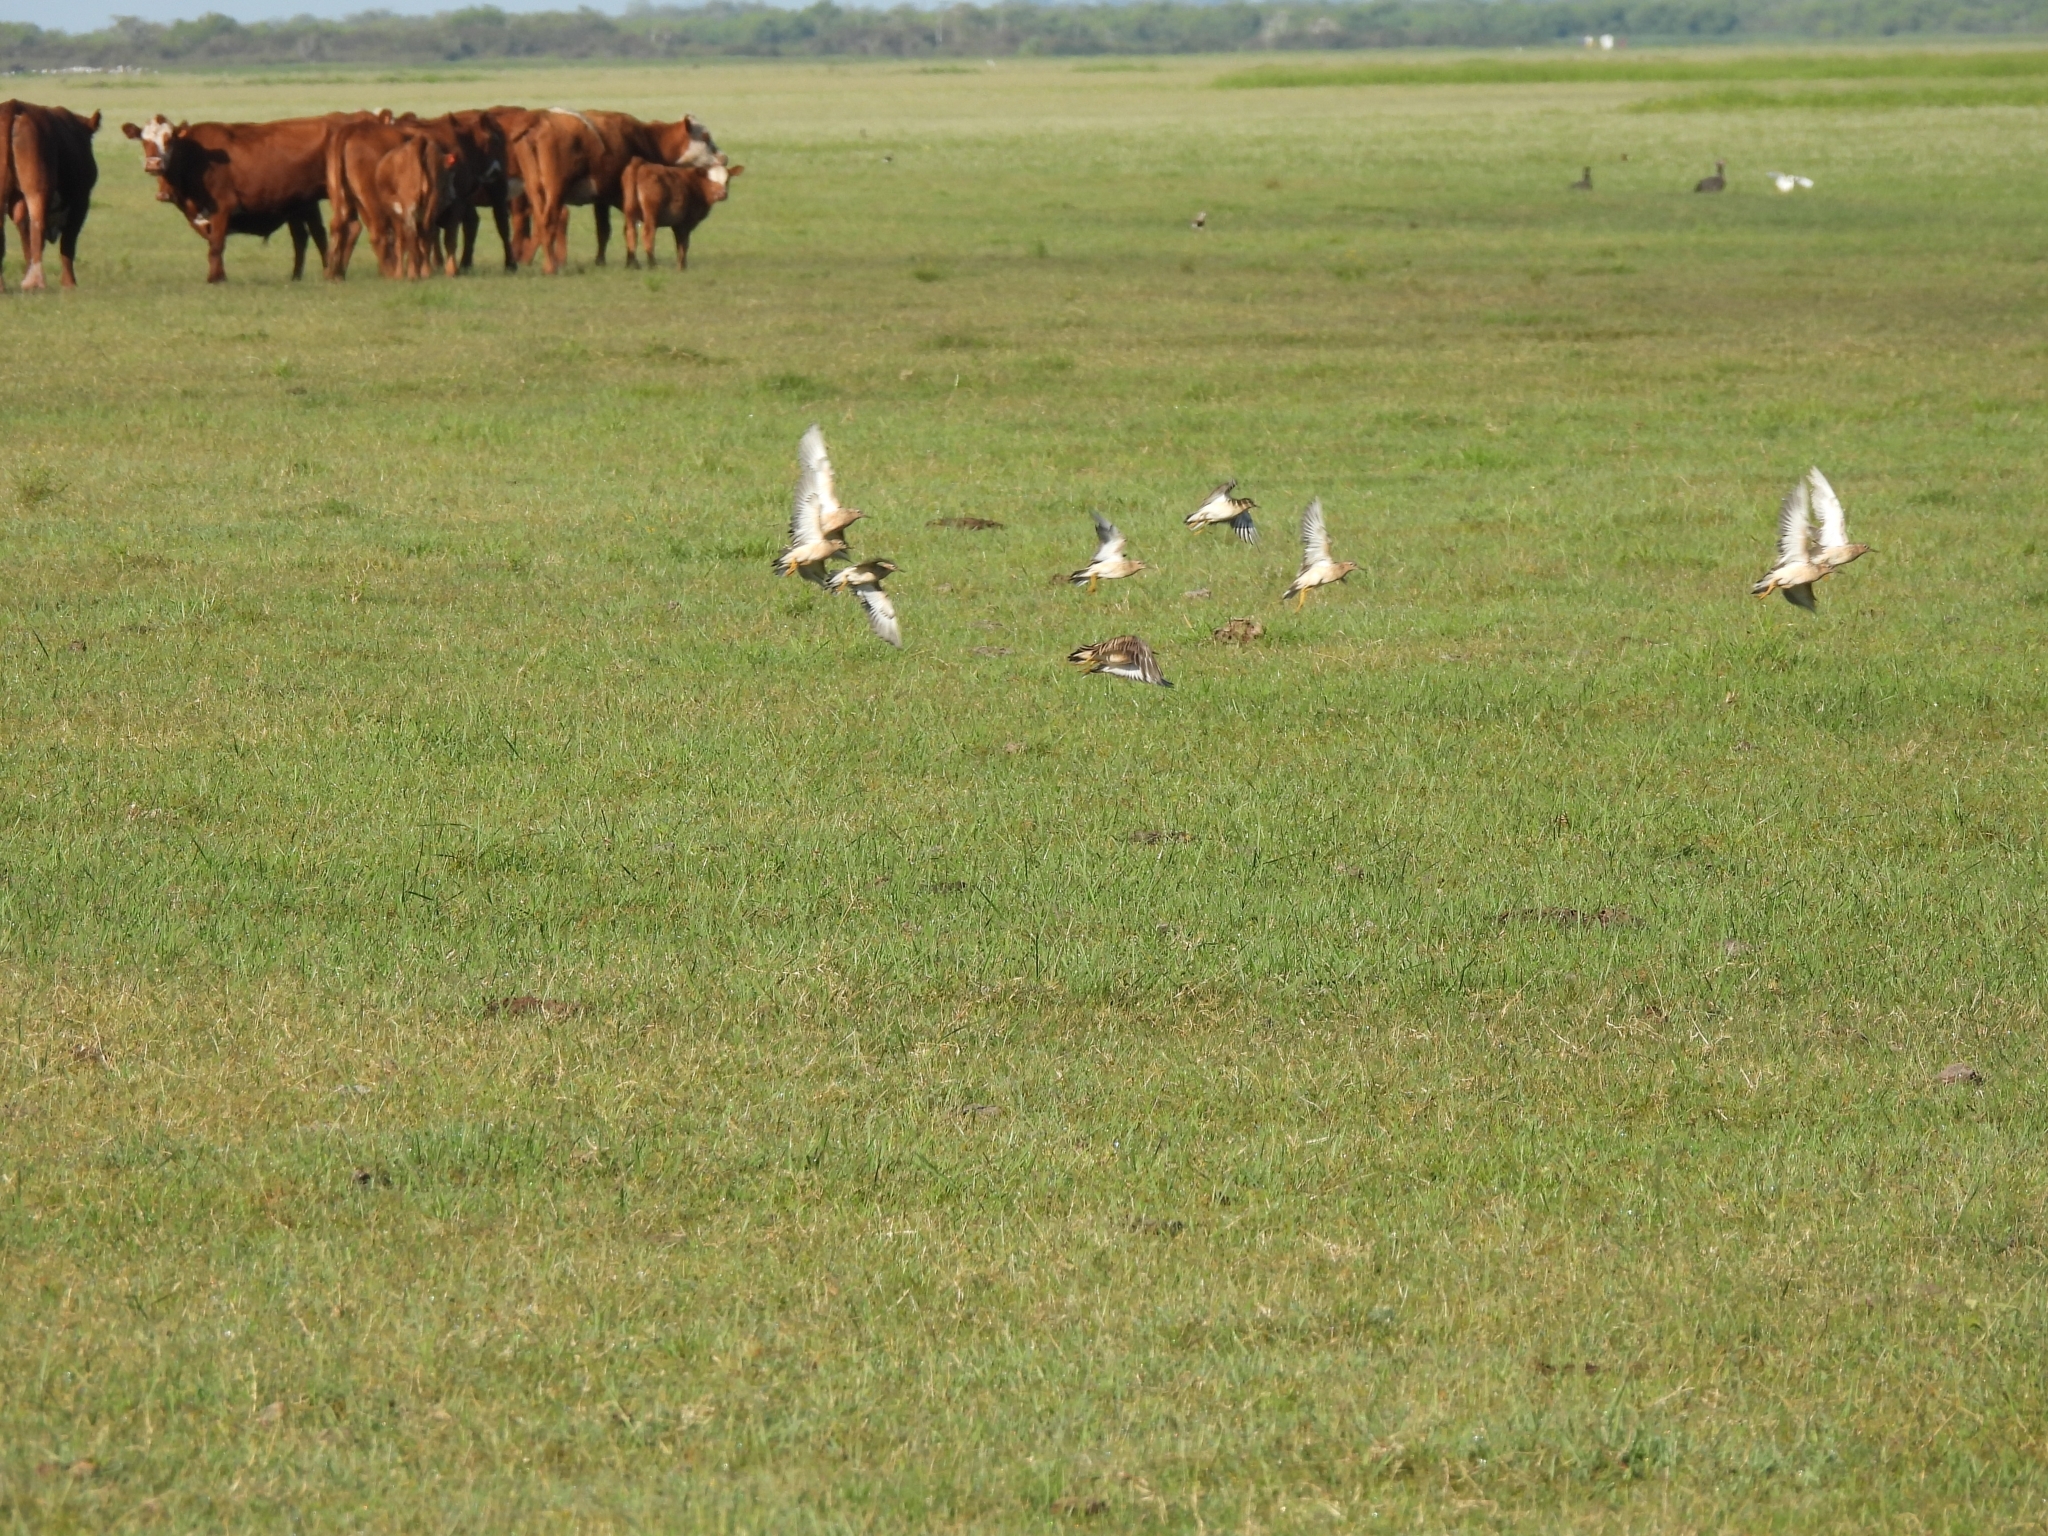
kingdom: Animalia
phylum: Chordata
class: Aves
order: Charadriiformes
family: Scolopacidae
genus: Calidris
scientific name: Calidris subruficollis
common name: Buff-breasted sandpiper
